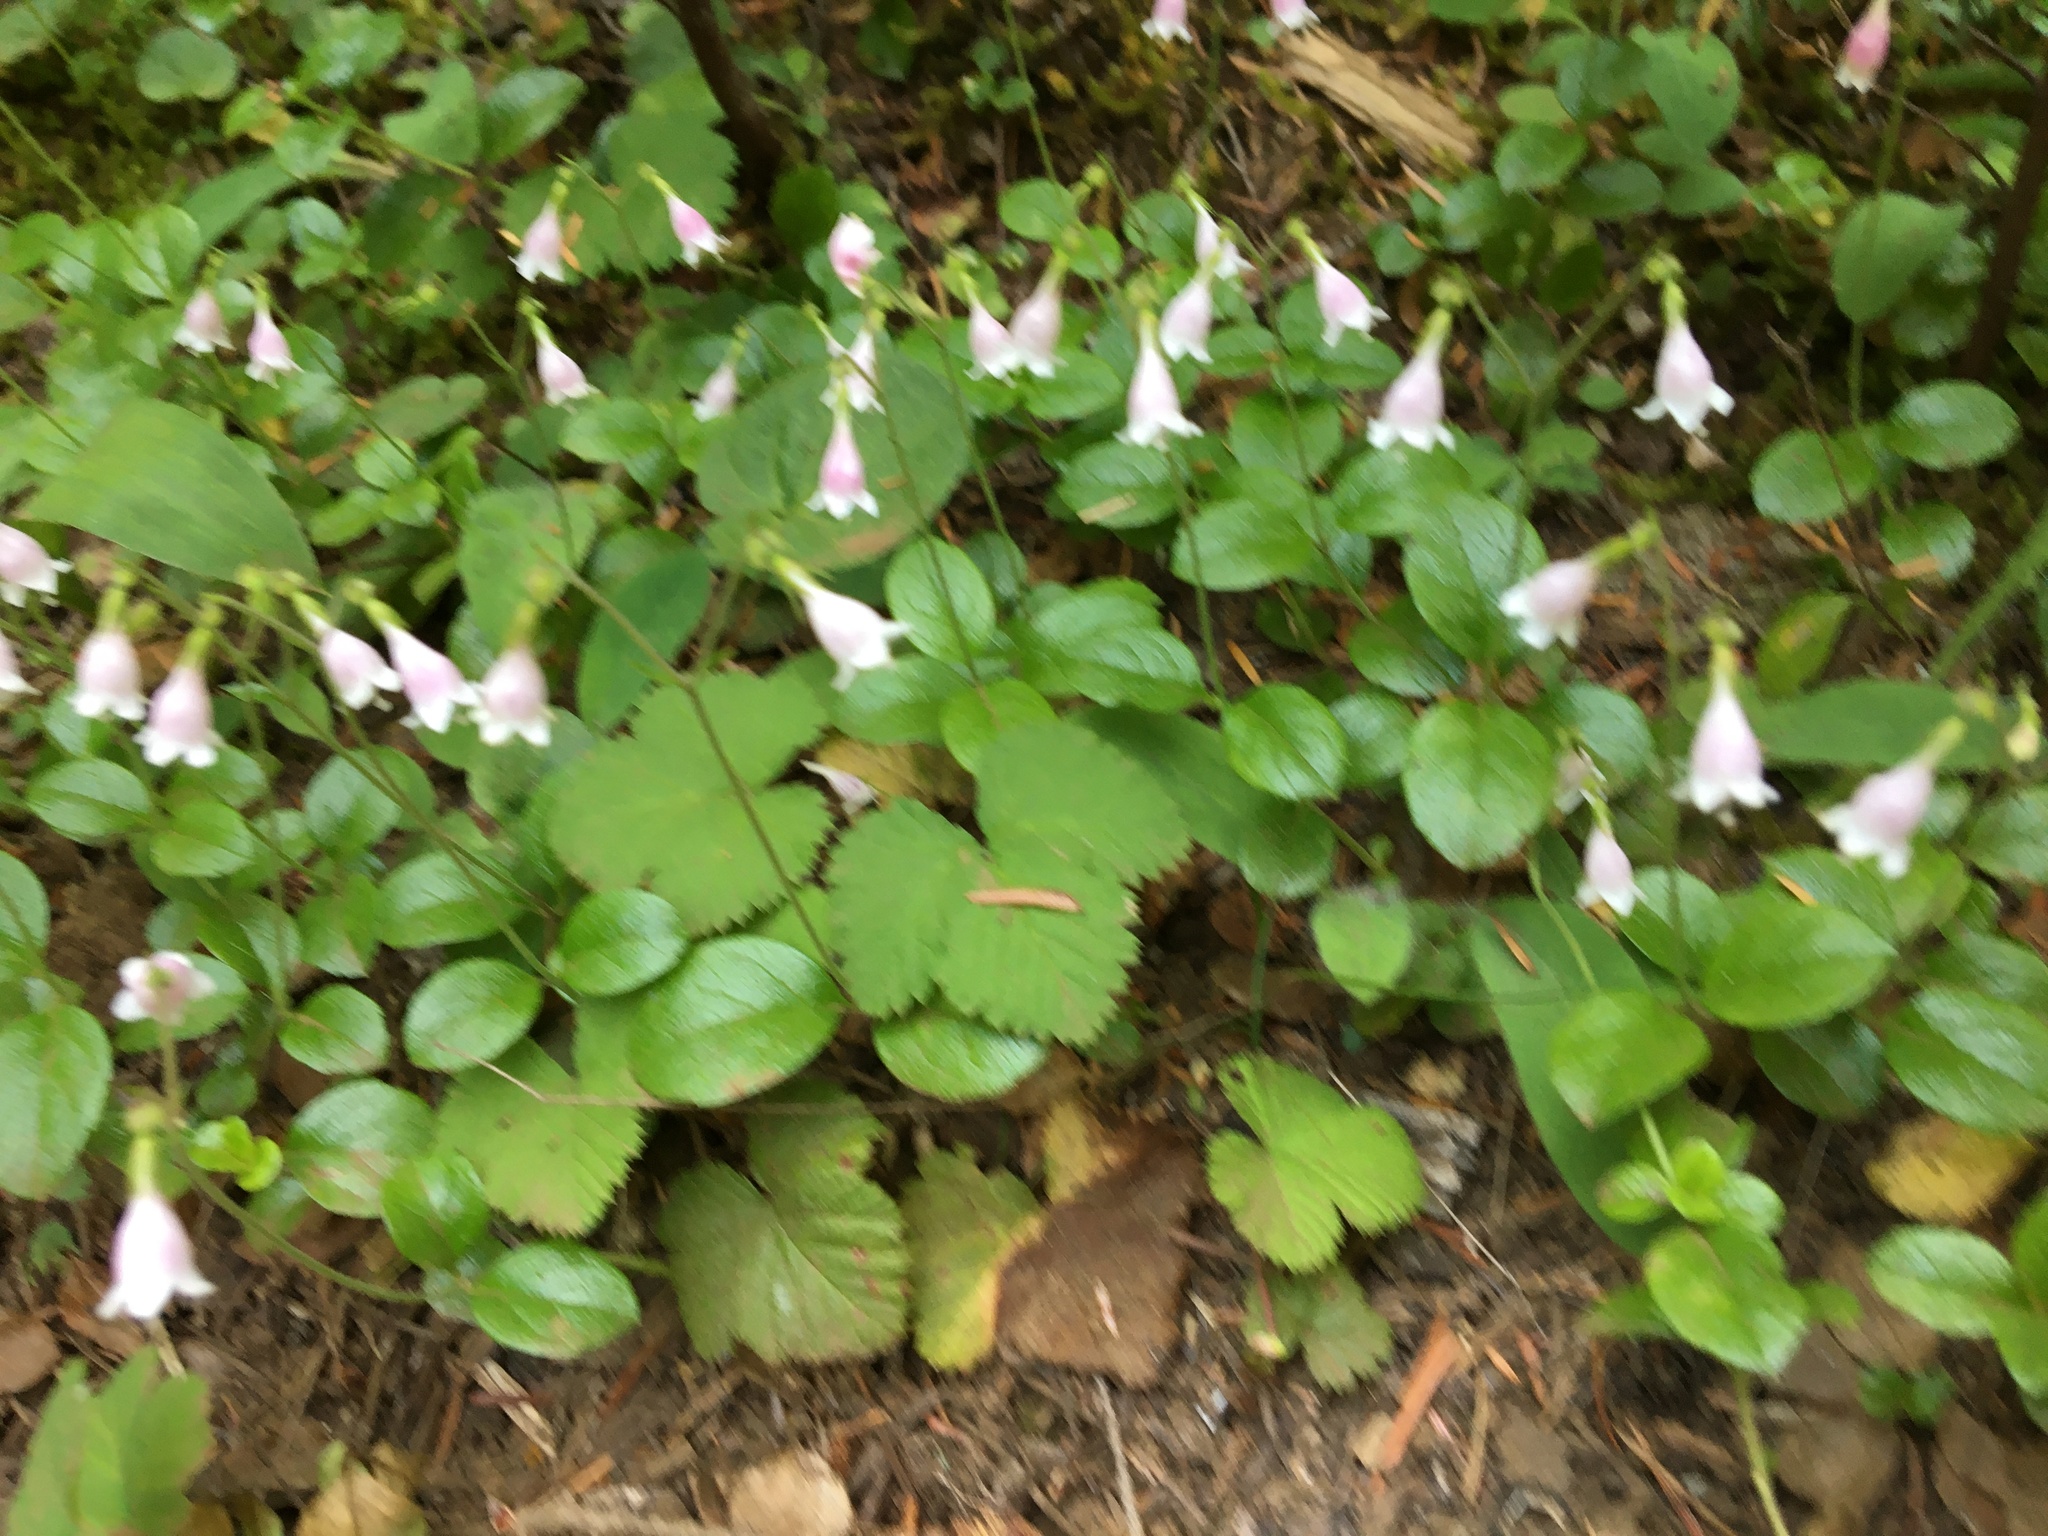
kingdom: Plantae
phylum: Tracheophyta
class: Magnoliopsida
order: Dipsacales
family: Caprifoliaceae
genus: Linnaea
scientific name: Linnaea borealis
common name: Twinflower
